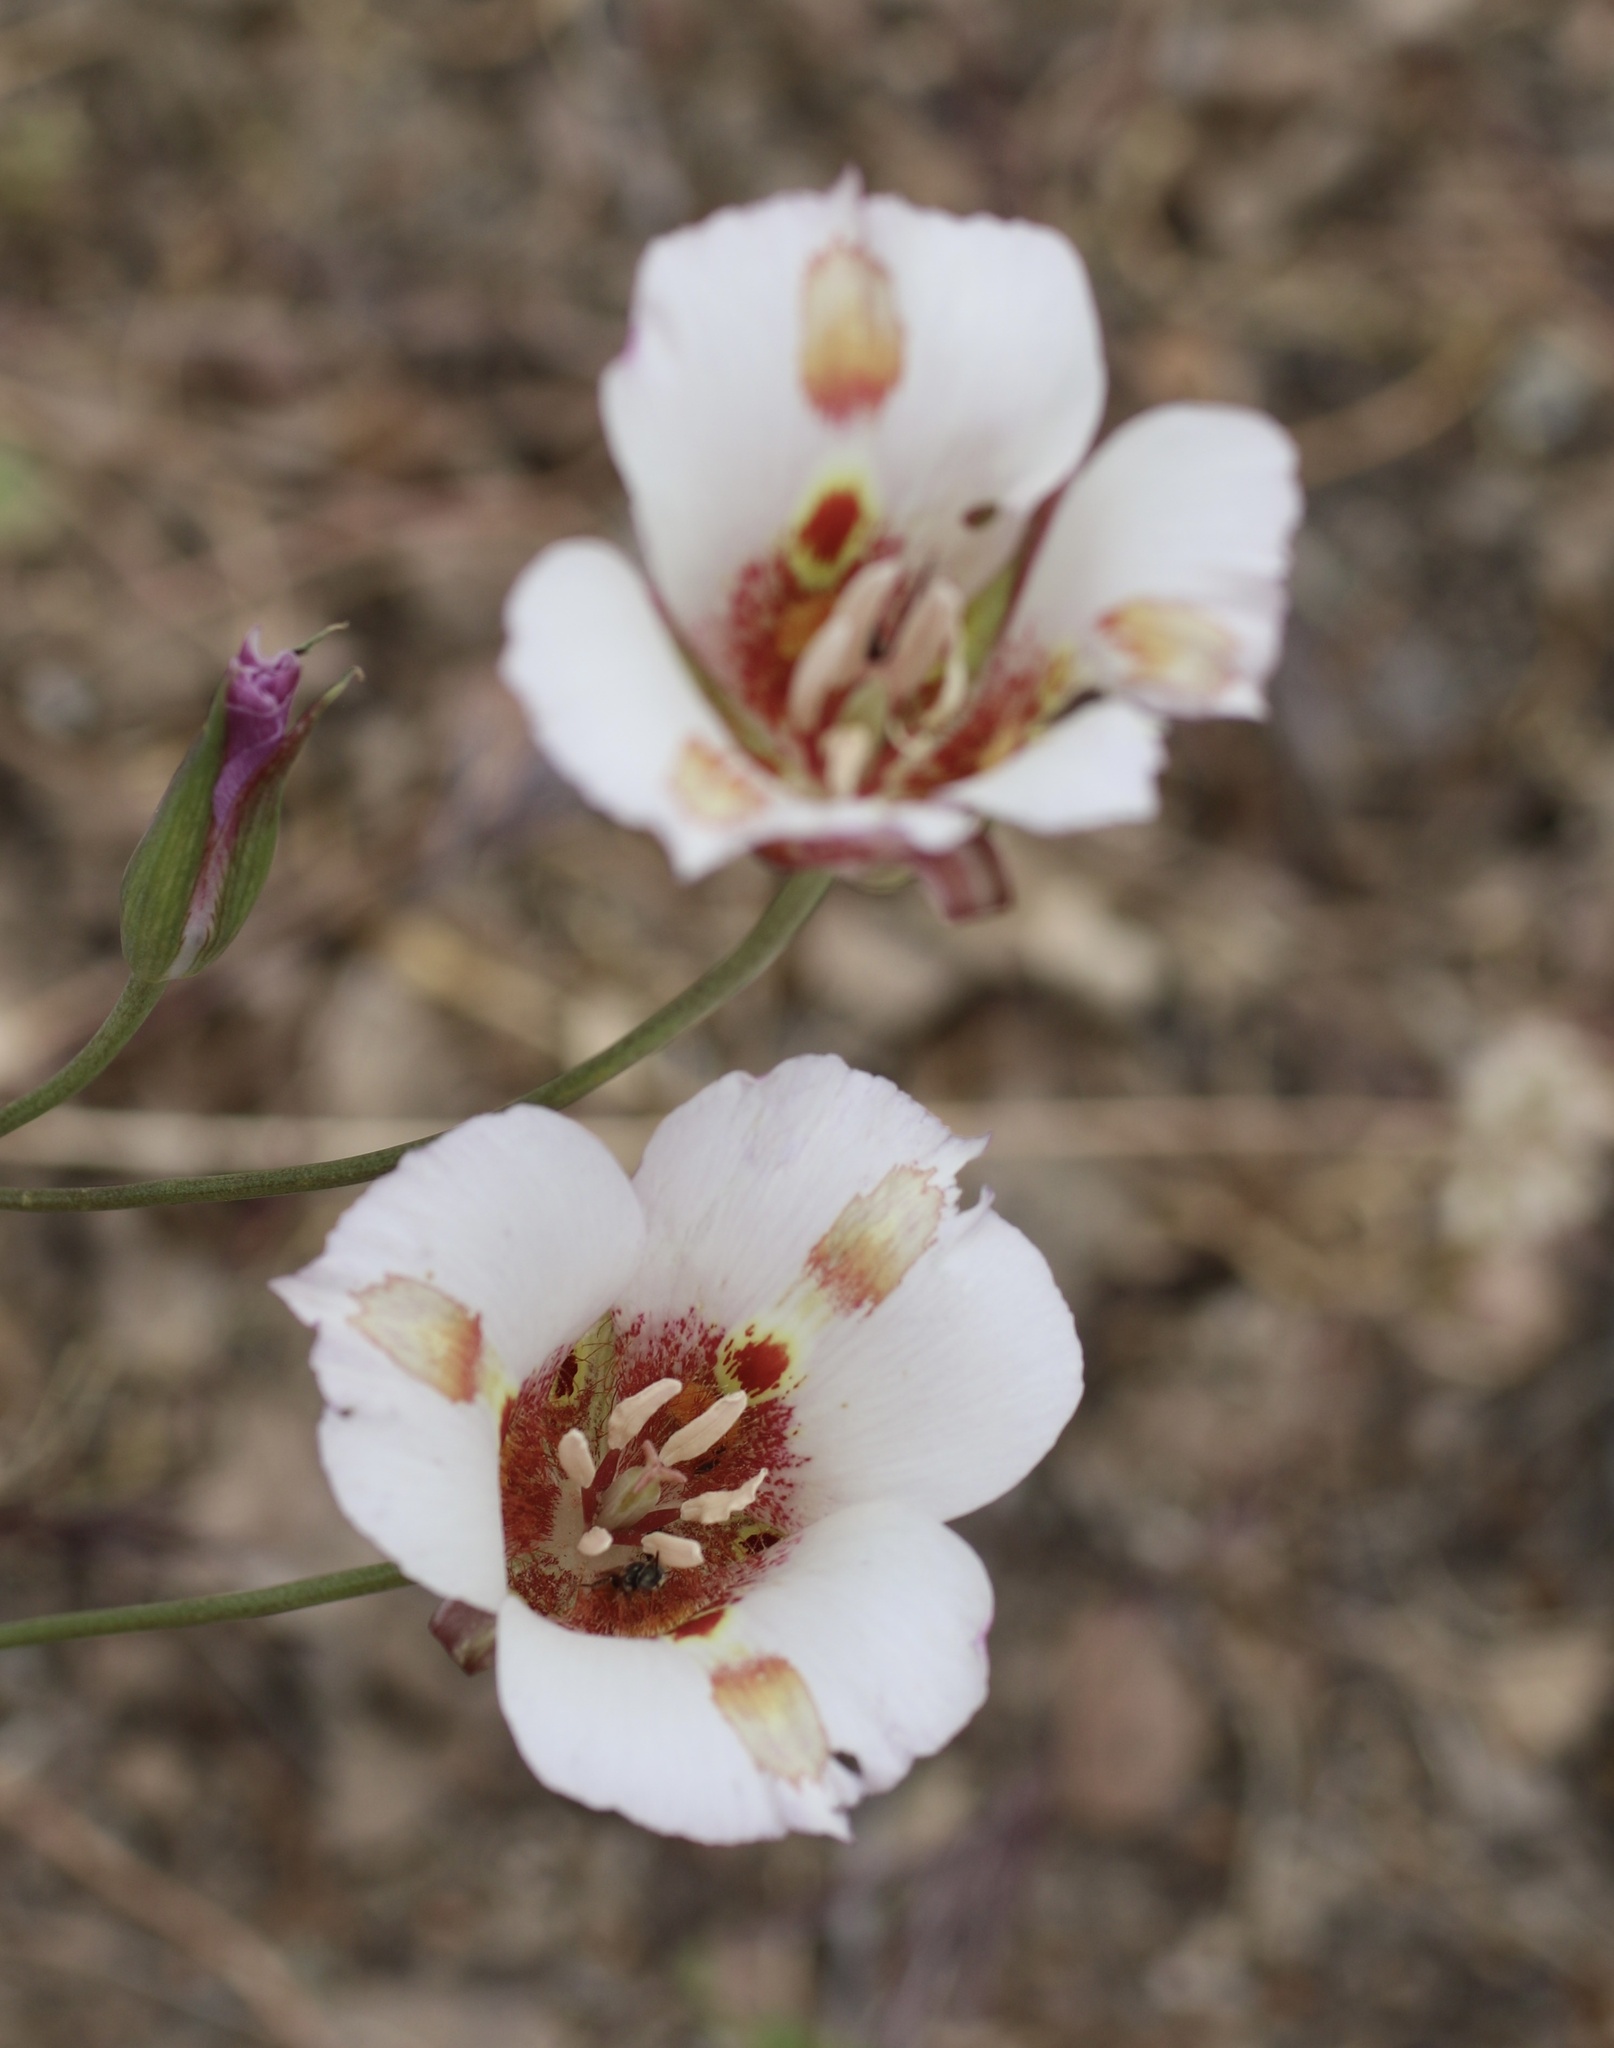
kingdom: Plantae
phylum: Tracheophyta
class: Liliopsida
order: Liliales
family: Liliaceae
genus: Calochortus
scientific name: Calochortus venustus
